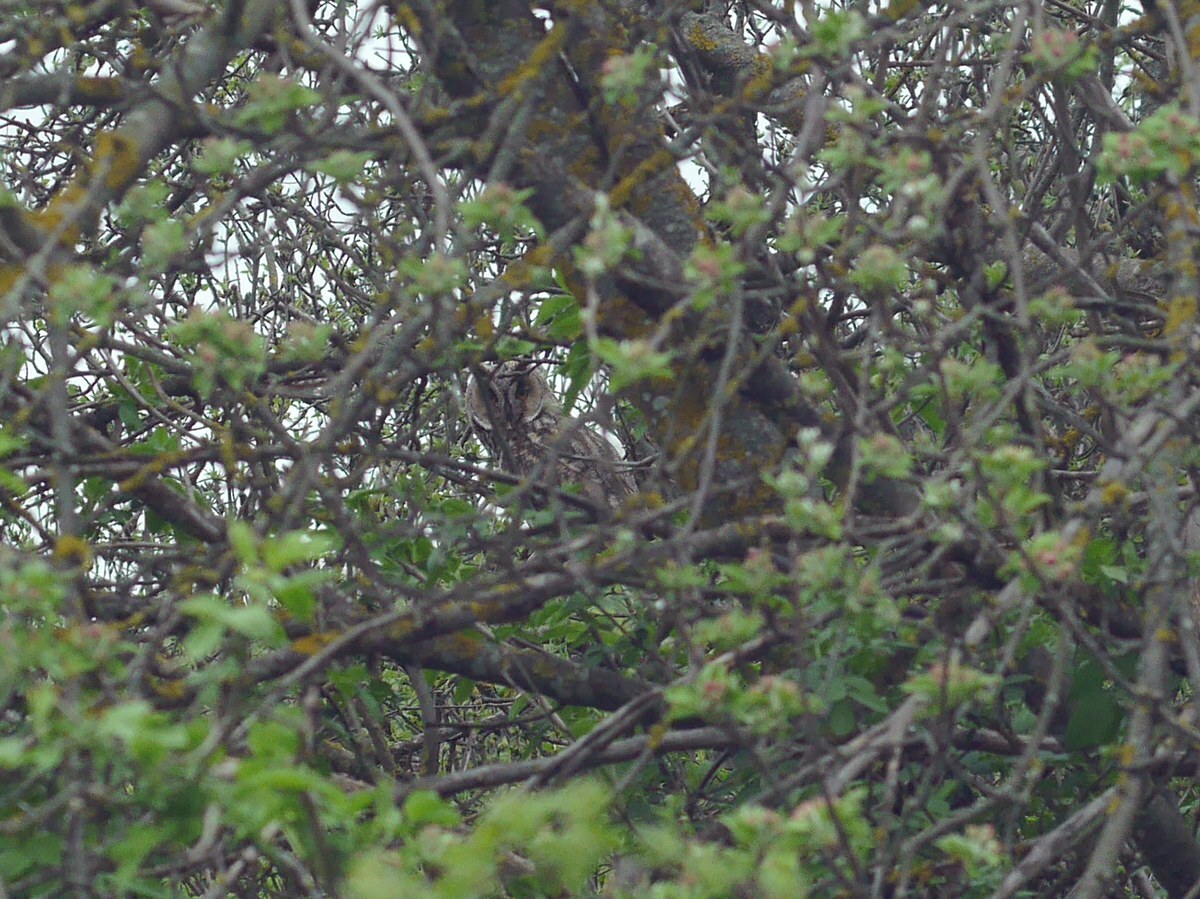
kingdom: Animalia
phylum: Chordata
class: Aves
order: Strigiformes
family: Strigidae
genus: Asio
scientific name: Asio otus
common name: Long-eared owl
